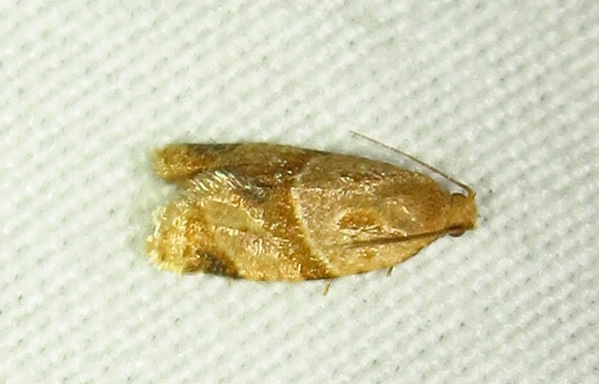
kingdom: Animalia
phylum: Arthropoda
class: Insecta
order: Lepidoptera
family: Tortricidae
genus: Clepsis
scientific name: Clepsis peritana
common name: Garden tortrix
